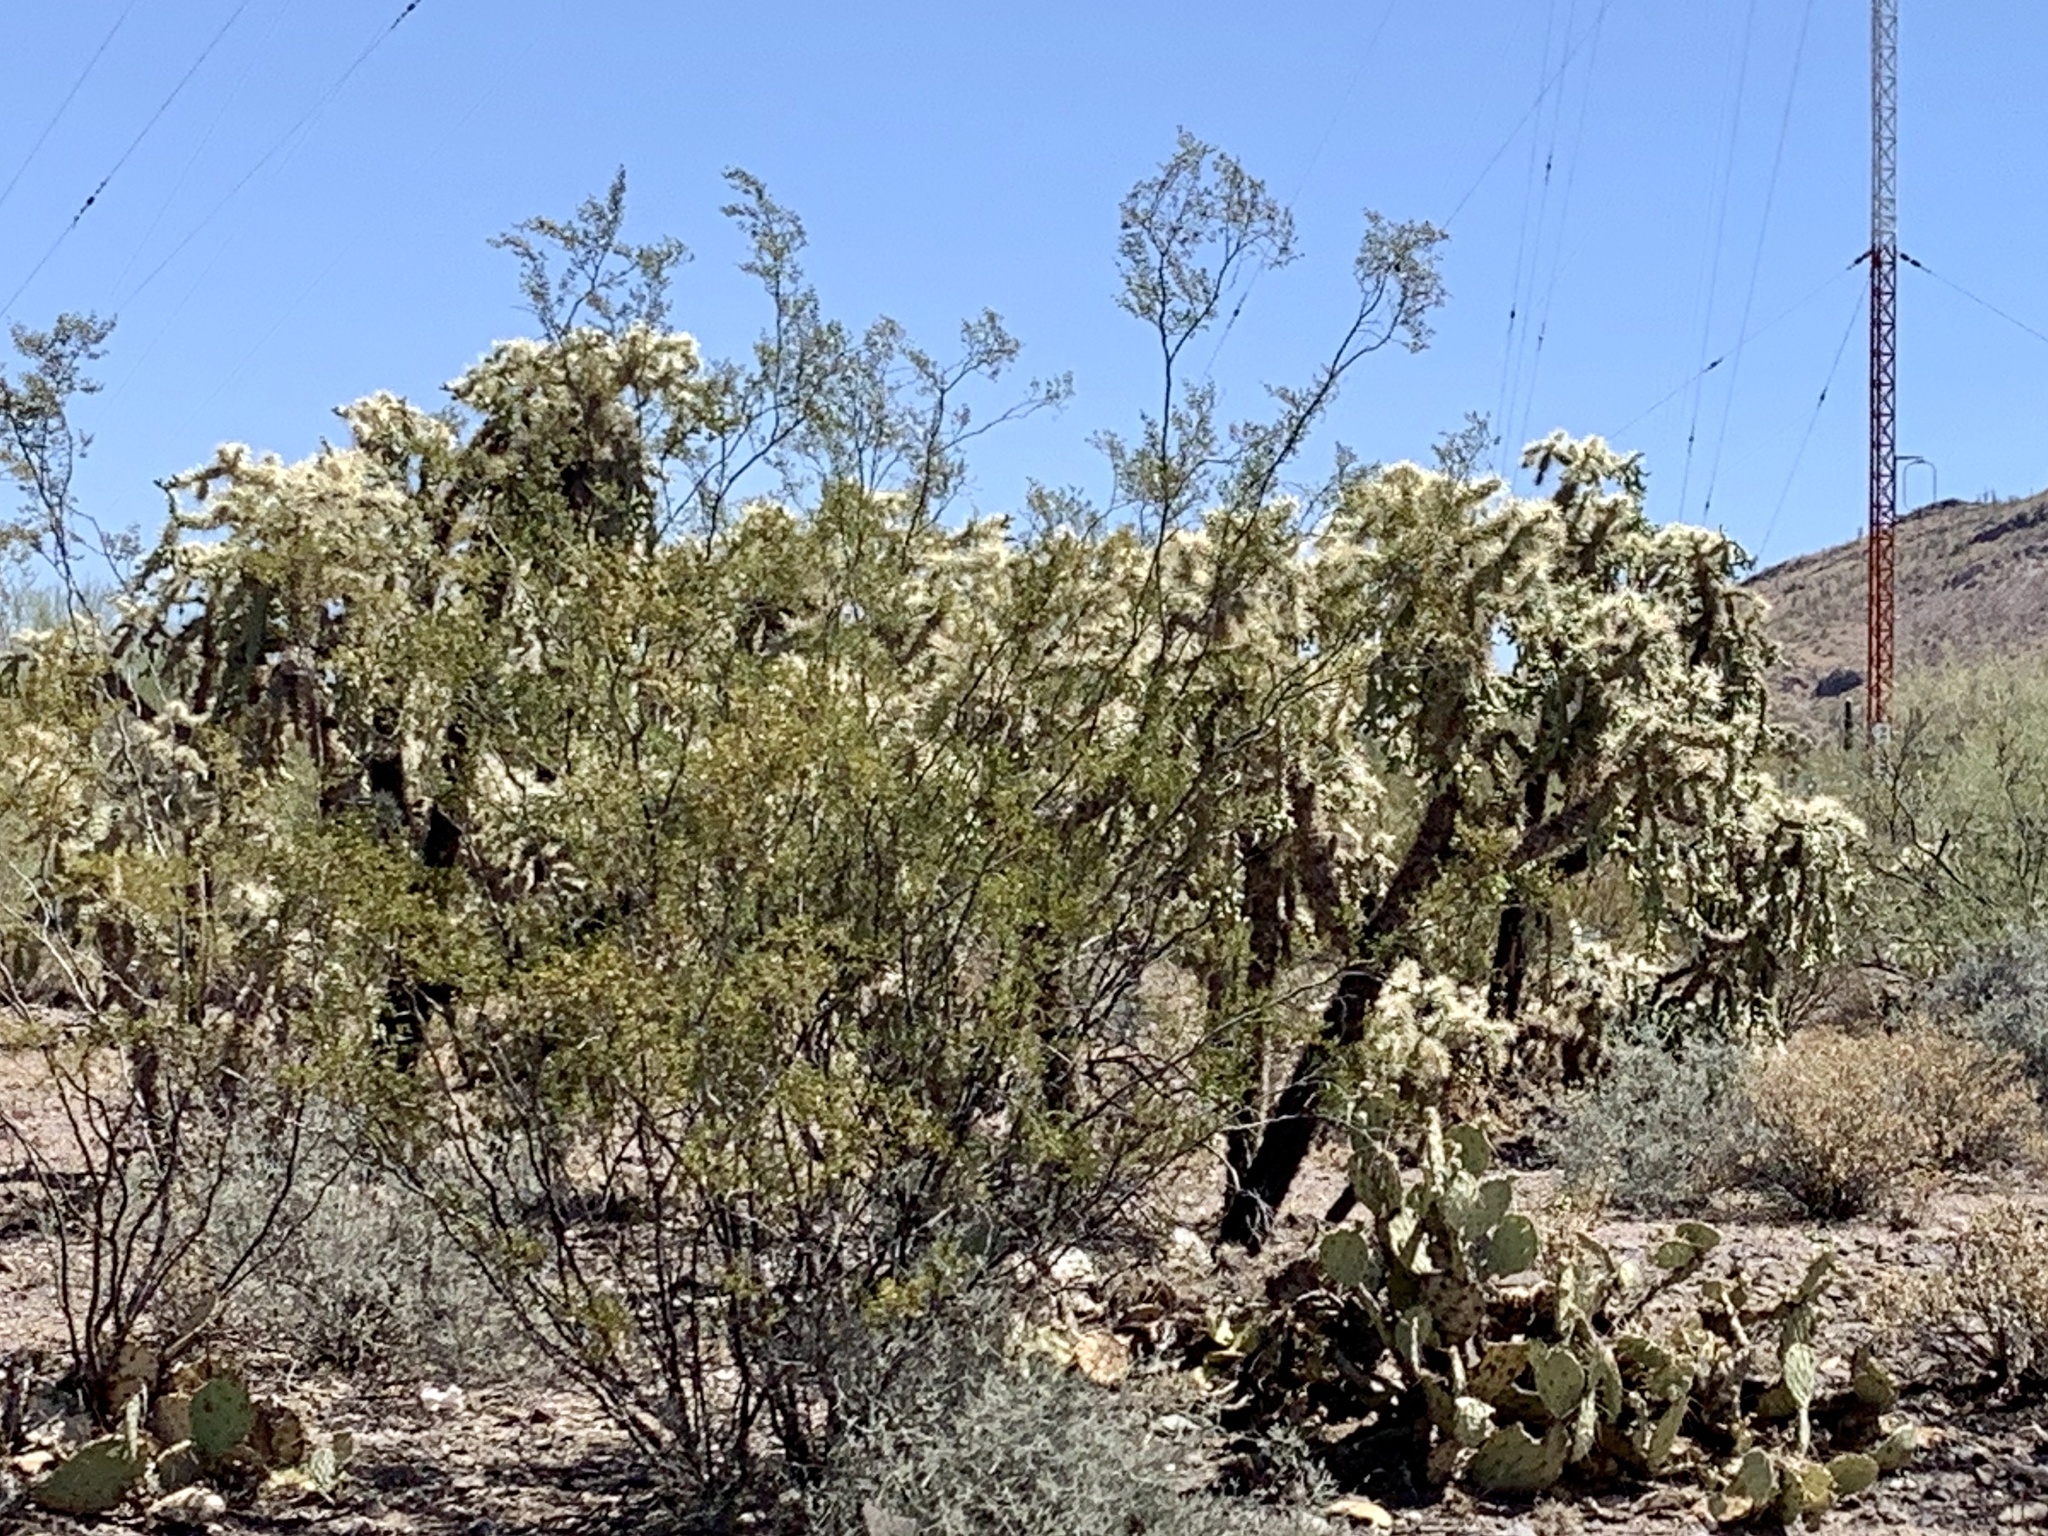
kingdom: Plantae
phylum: Tracheophyta
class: Magnoliopsida
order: Caryophyllales
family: Cactaceae
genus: Cylindropuntia
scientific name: Cylindropuntia fulgida
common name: Jumping cholla
